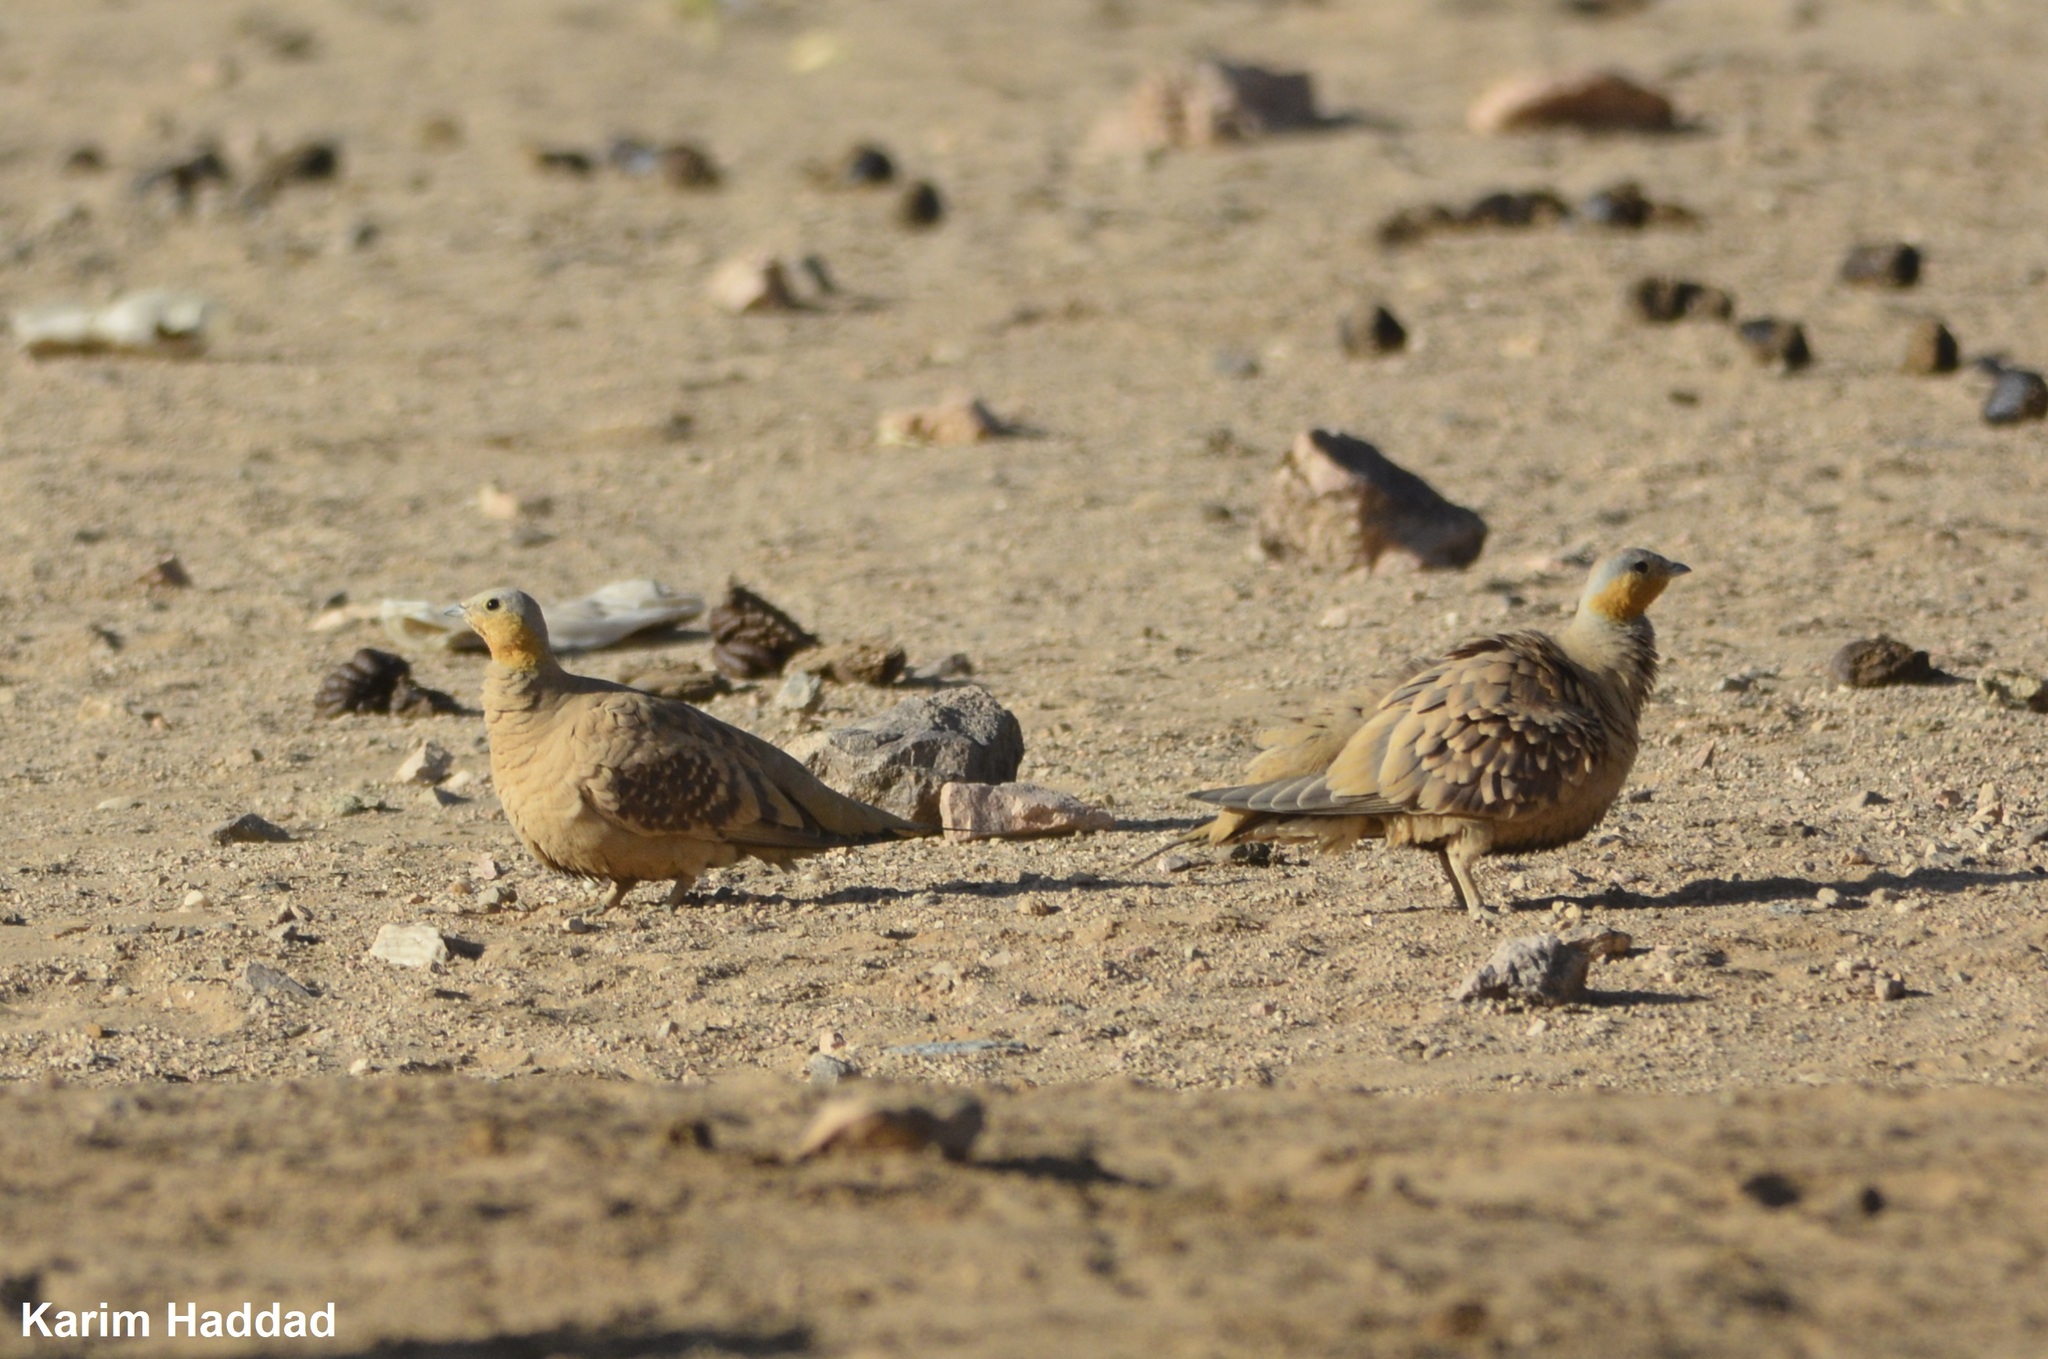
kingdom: Animalia
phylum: Chordata
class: Aves
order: Pteroclidiformes
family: Pteroclididae
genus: Pterocles
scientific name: Pterocles senegallus
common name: Spotted sandgrouse
